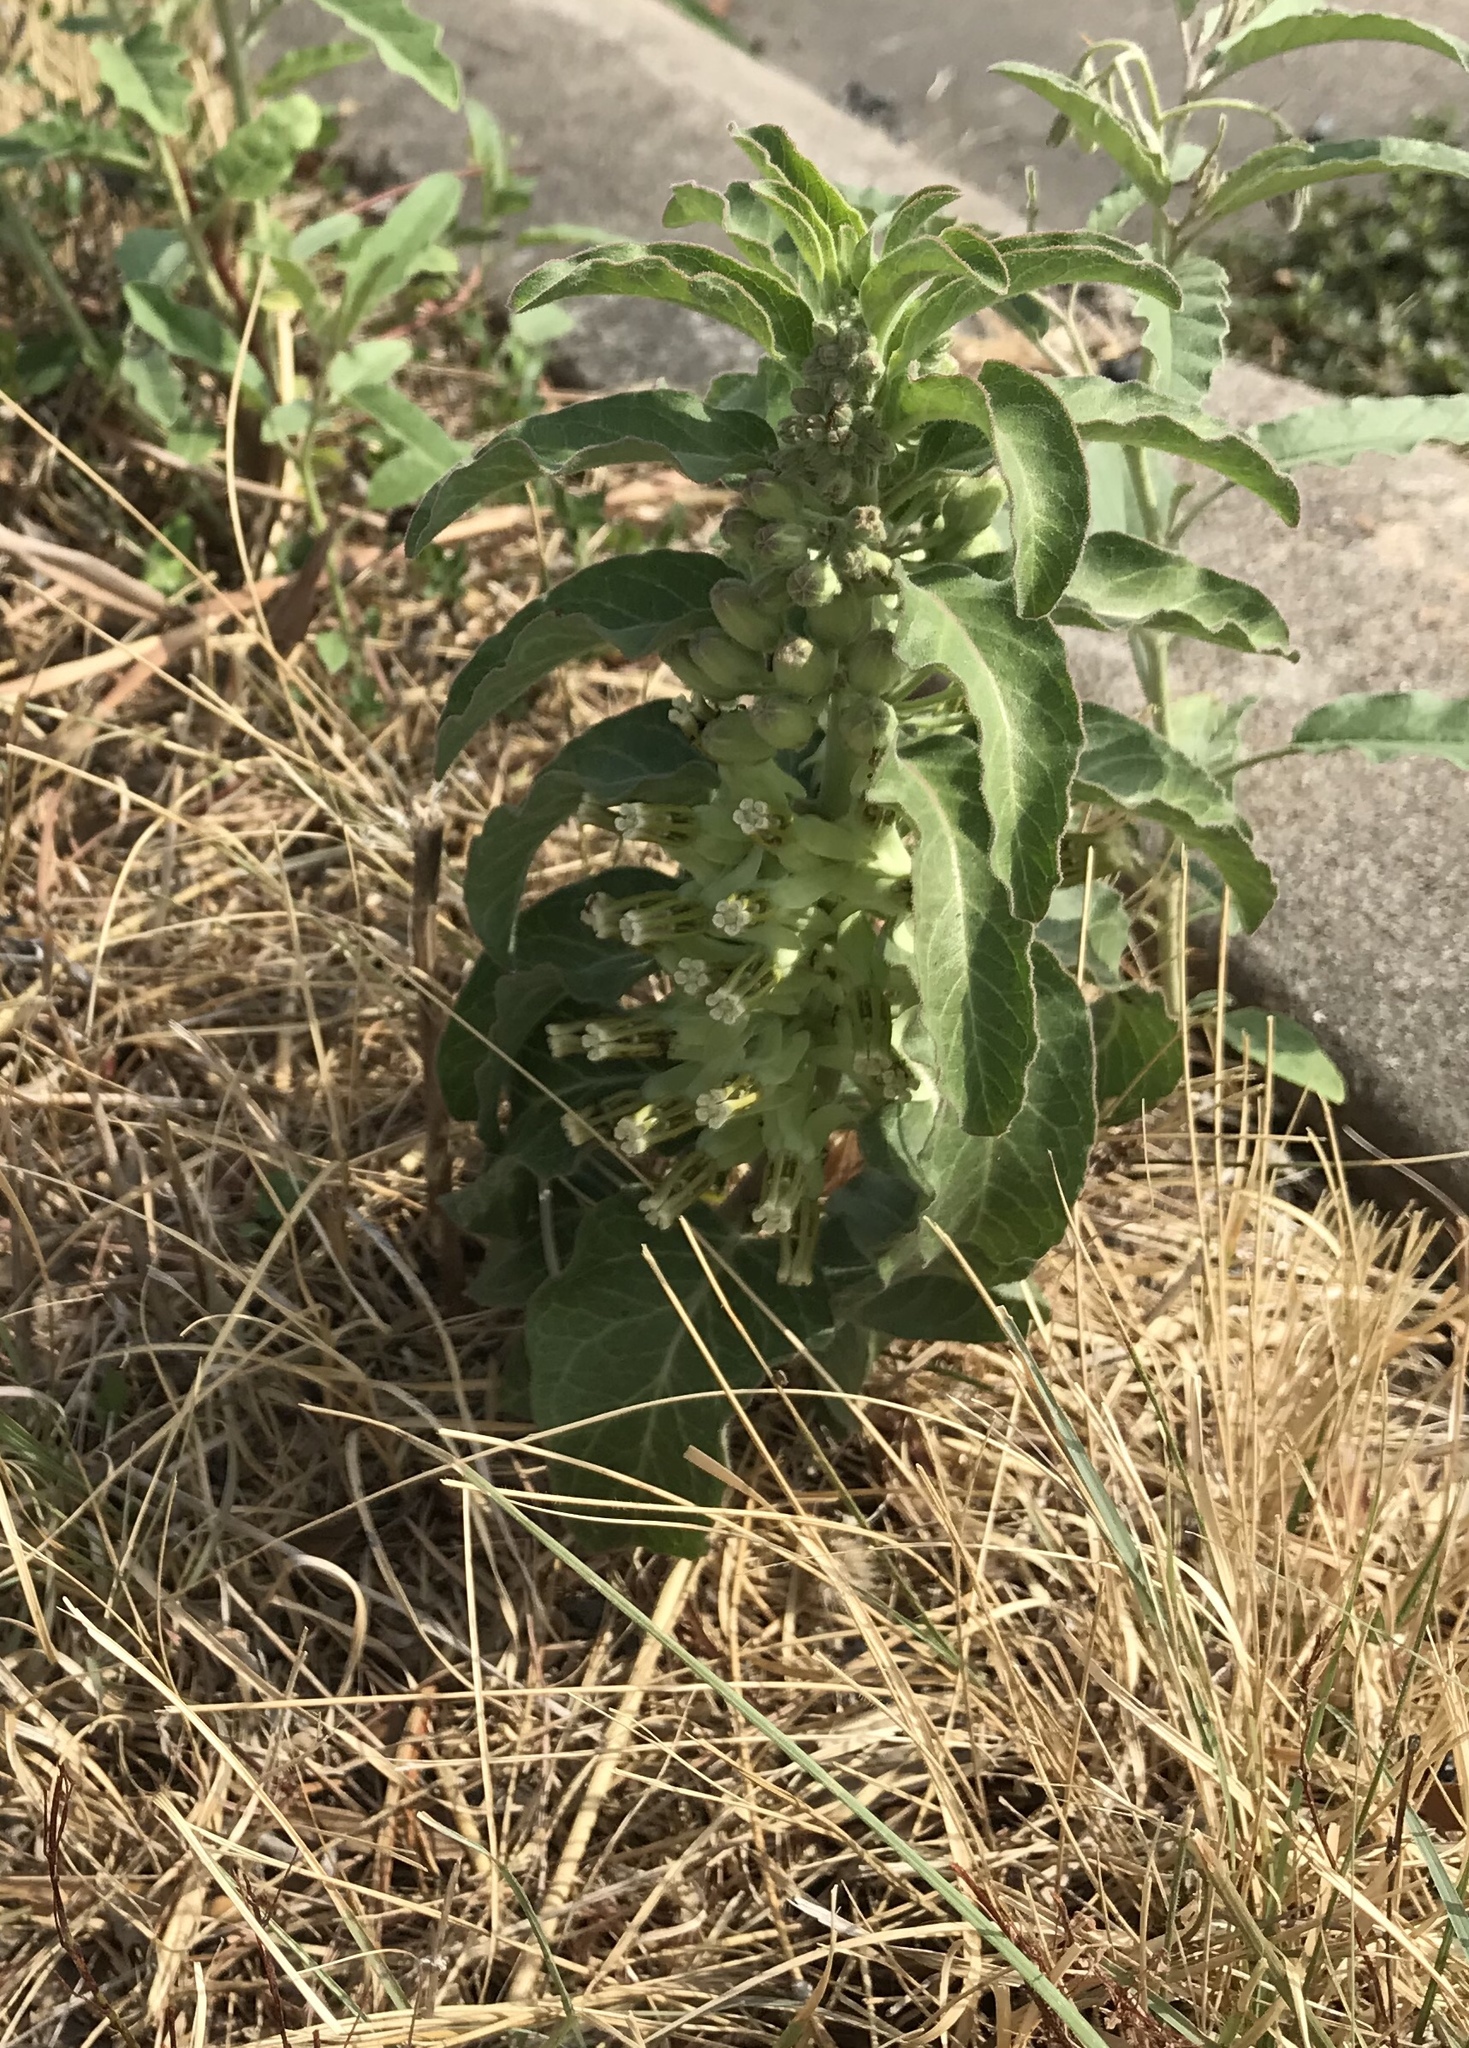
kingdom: Plantae
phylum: Tracheophyta
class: Magnoliopsida
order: Gentianales
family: Apocynaceae
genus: Asclepias
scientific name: Asclepias oenotheroides
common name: Zizotes milkweed
